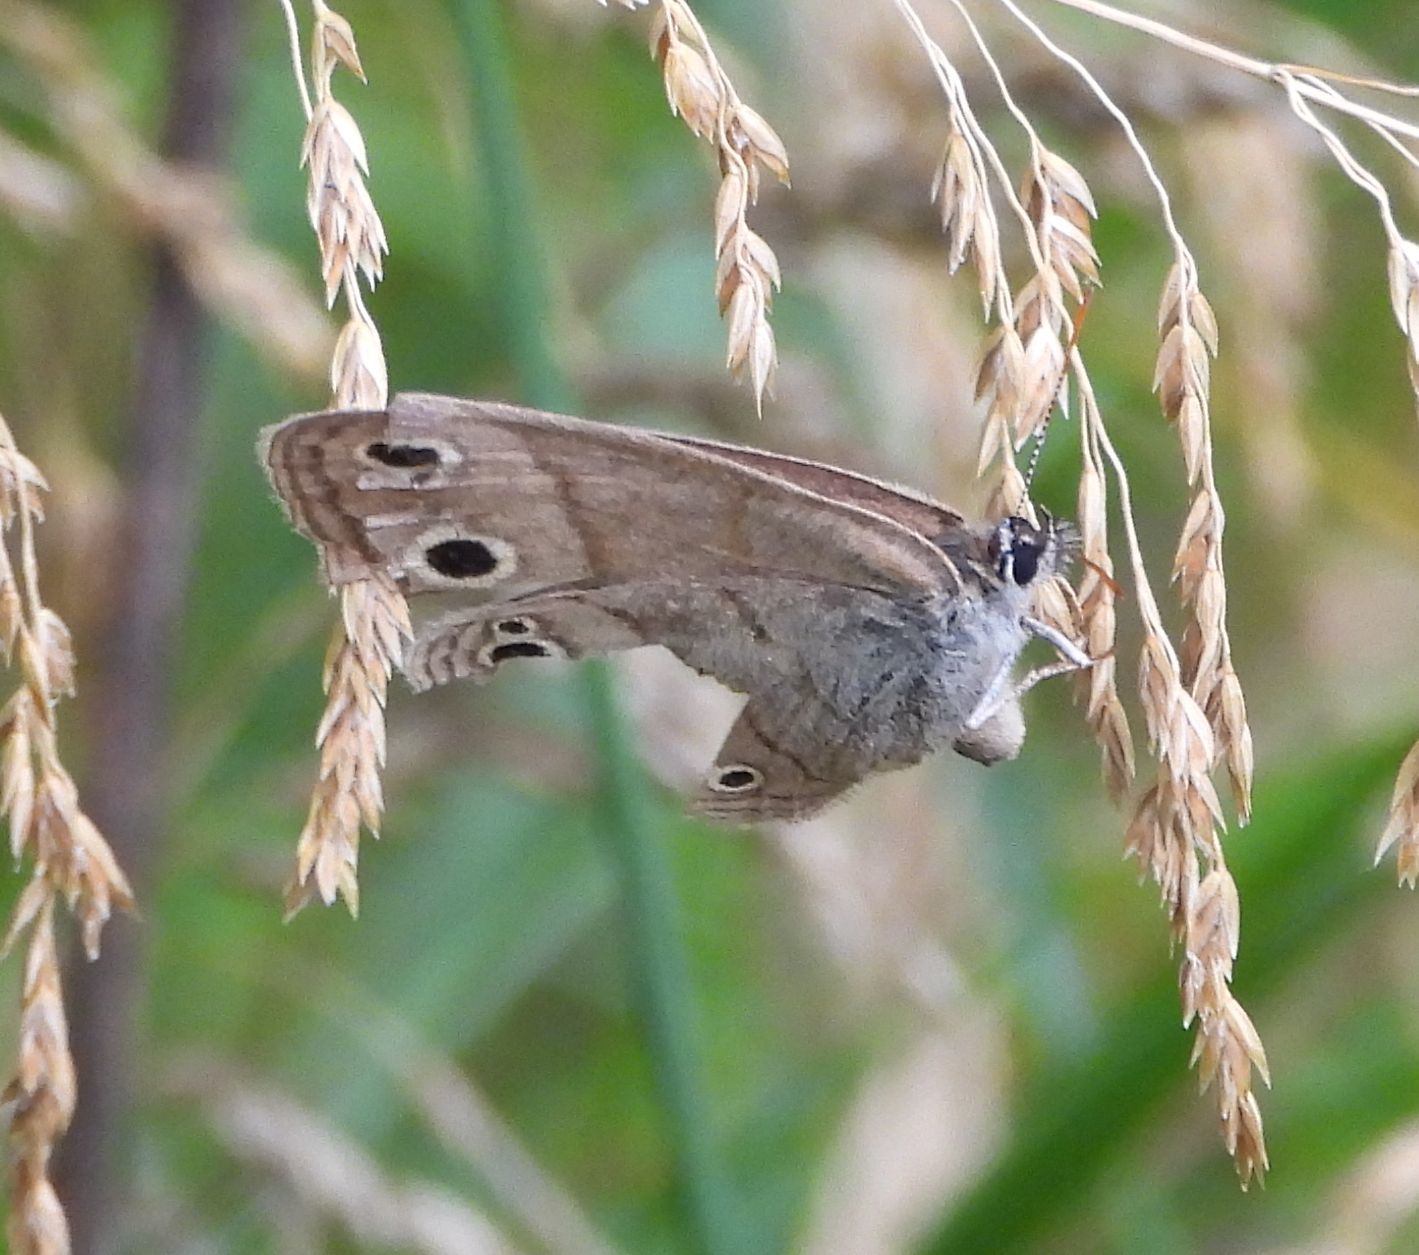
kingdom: Animalia
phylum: Arthropoda
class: Insecta
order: Lepidoptera
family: Nymphalidae
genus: Euptychia
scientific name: Euptychia cymela
